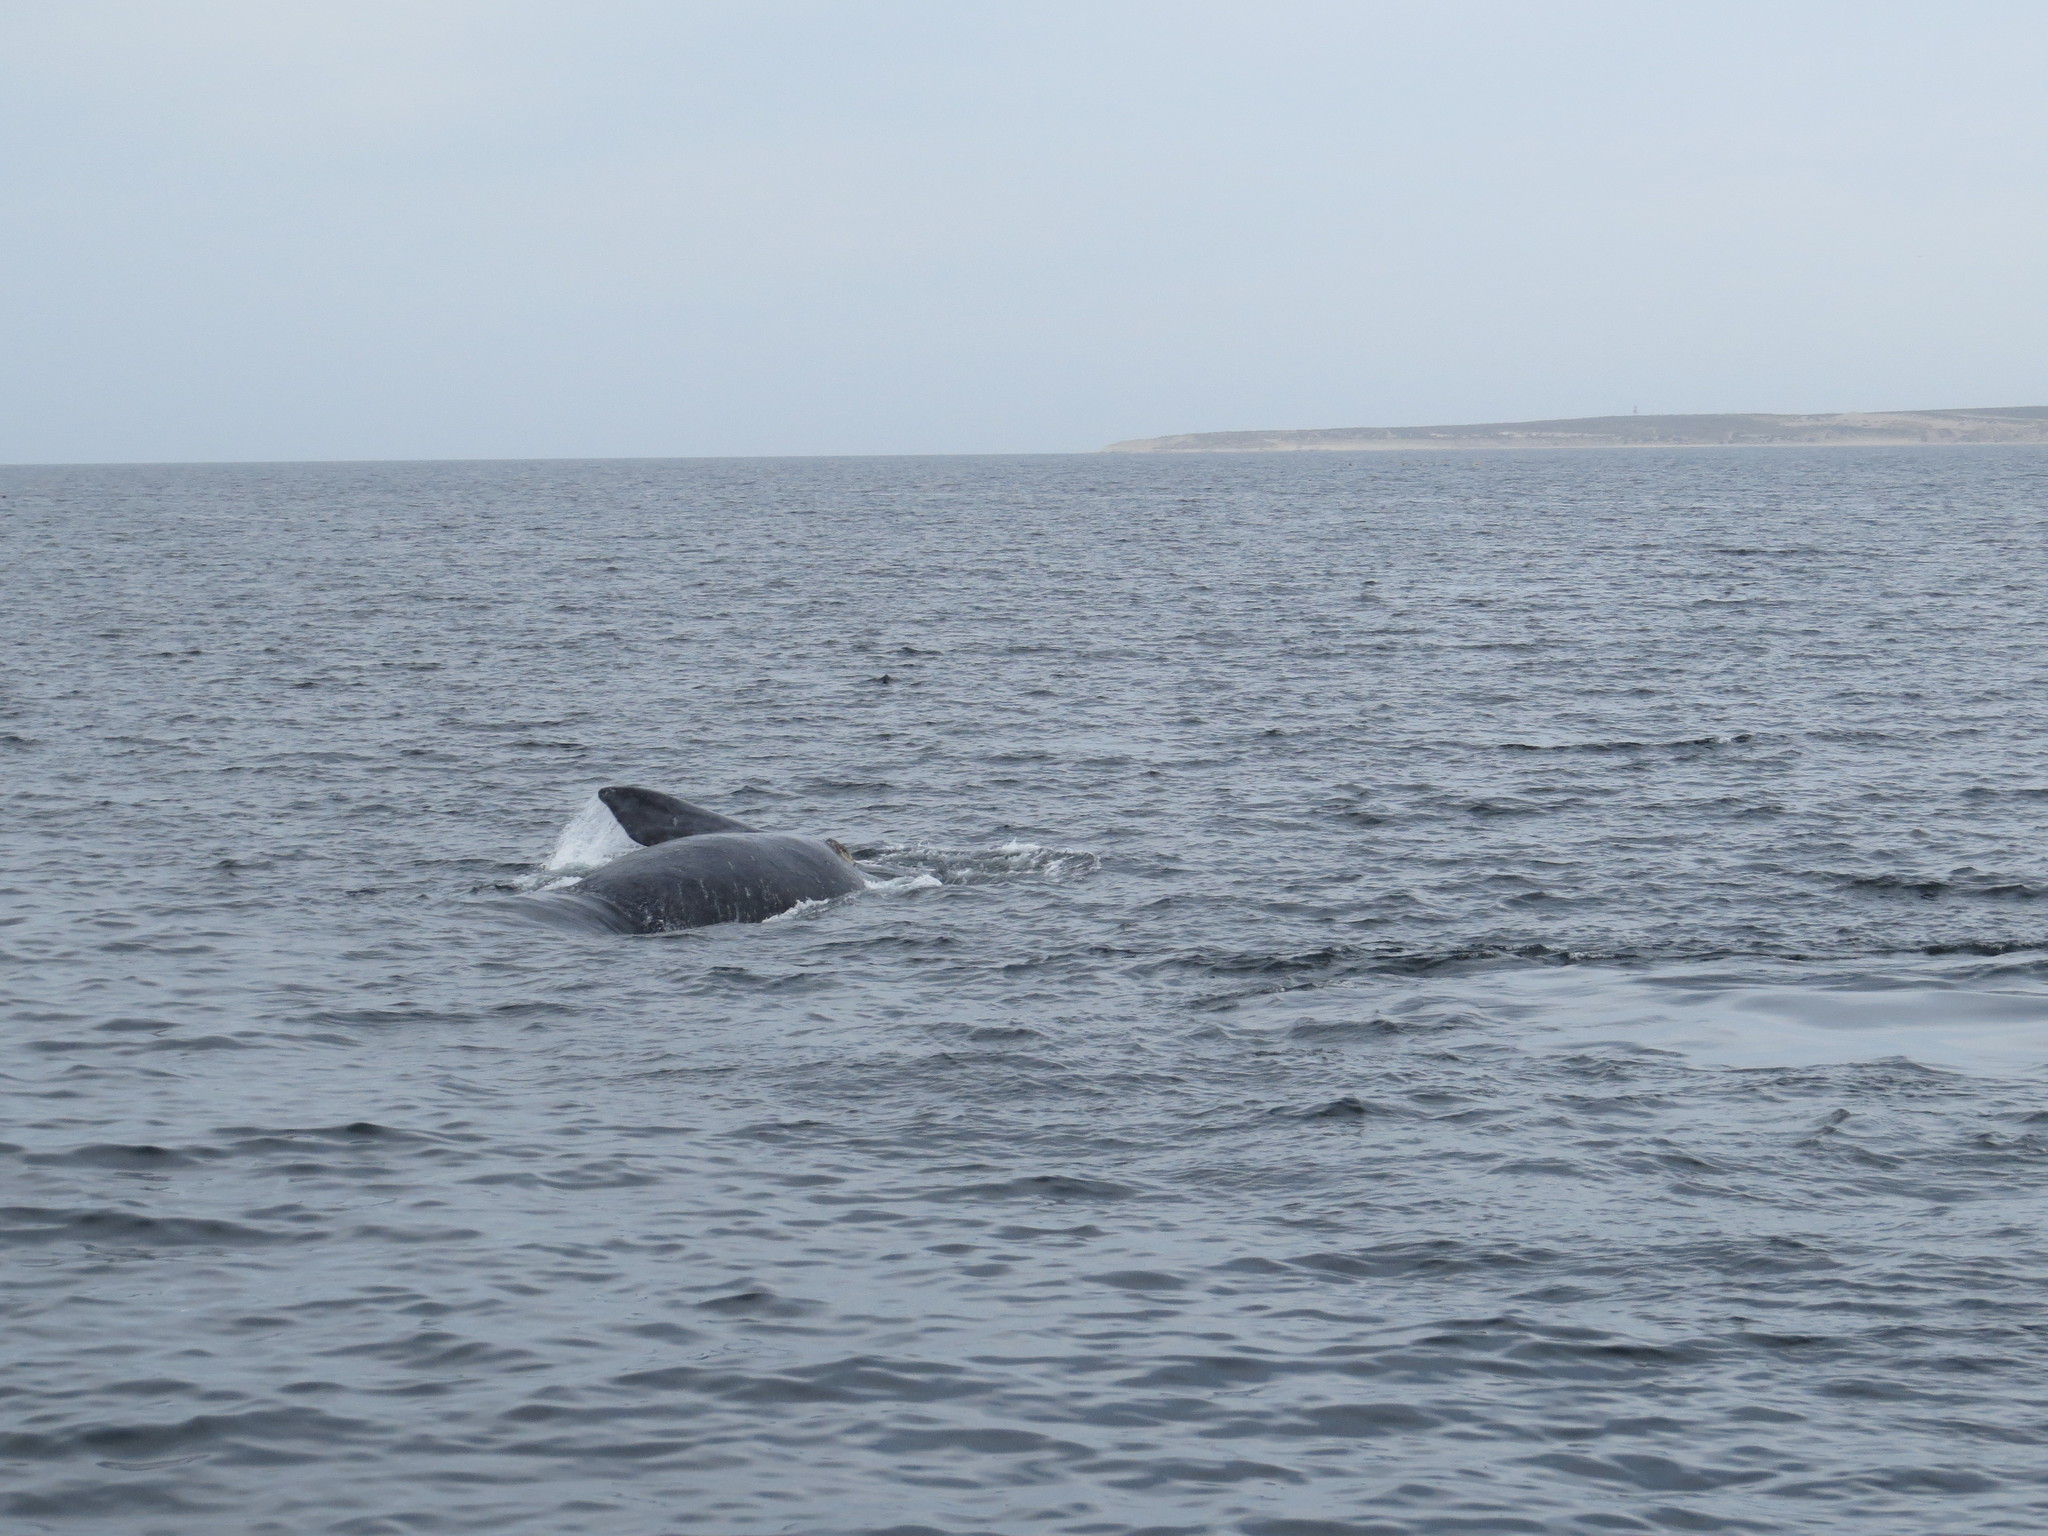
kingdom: Animalia
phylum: Chordata
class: Mammalia
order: Cetacea
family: Balaenidae
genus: Eubalaena
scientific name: Eubalaena australis
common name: Southern right whale
